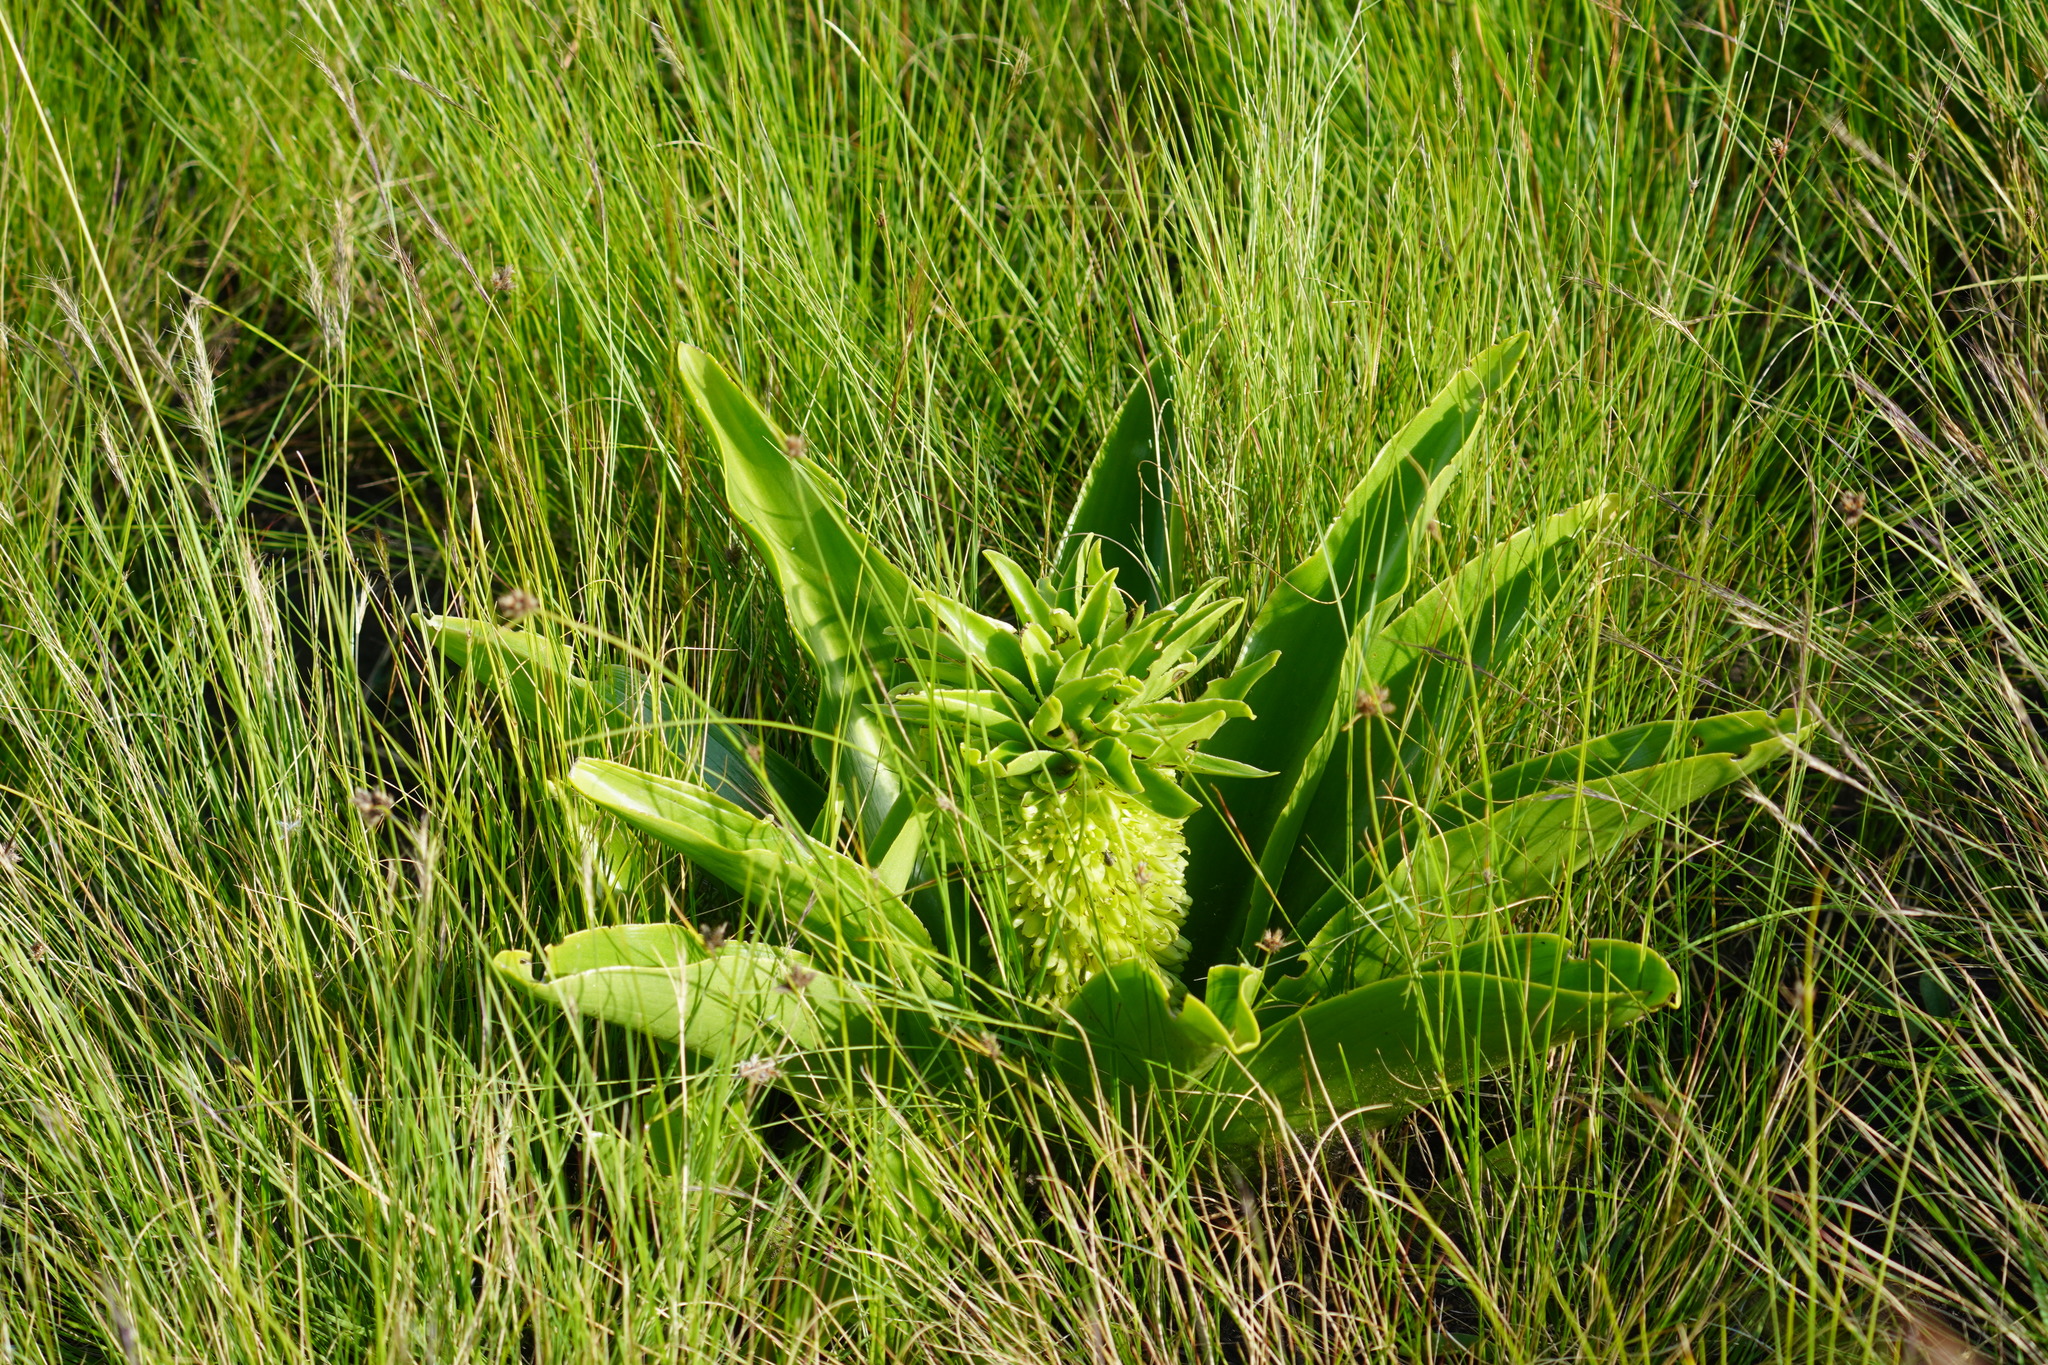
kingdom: Plantae
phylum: Tracheophyta
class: Liliopsida
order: Asparagales
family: Asparagaceae
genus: Eucomis
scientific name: Eucomis autumnalis
